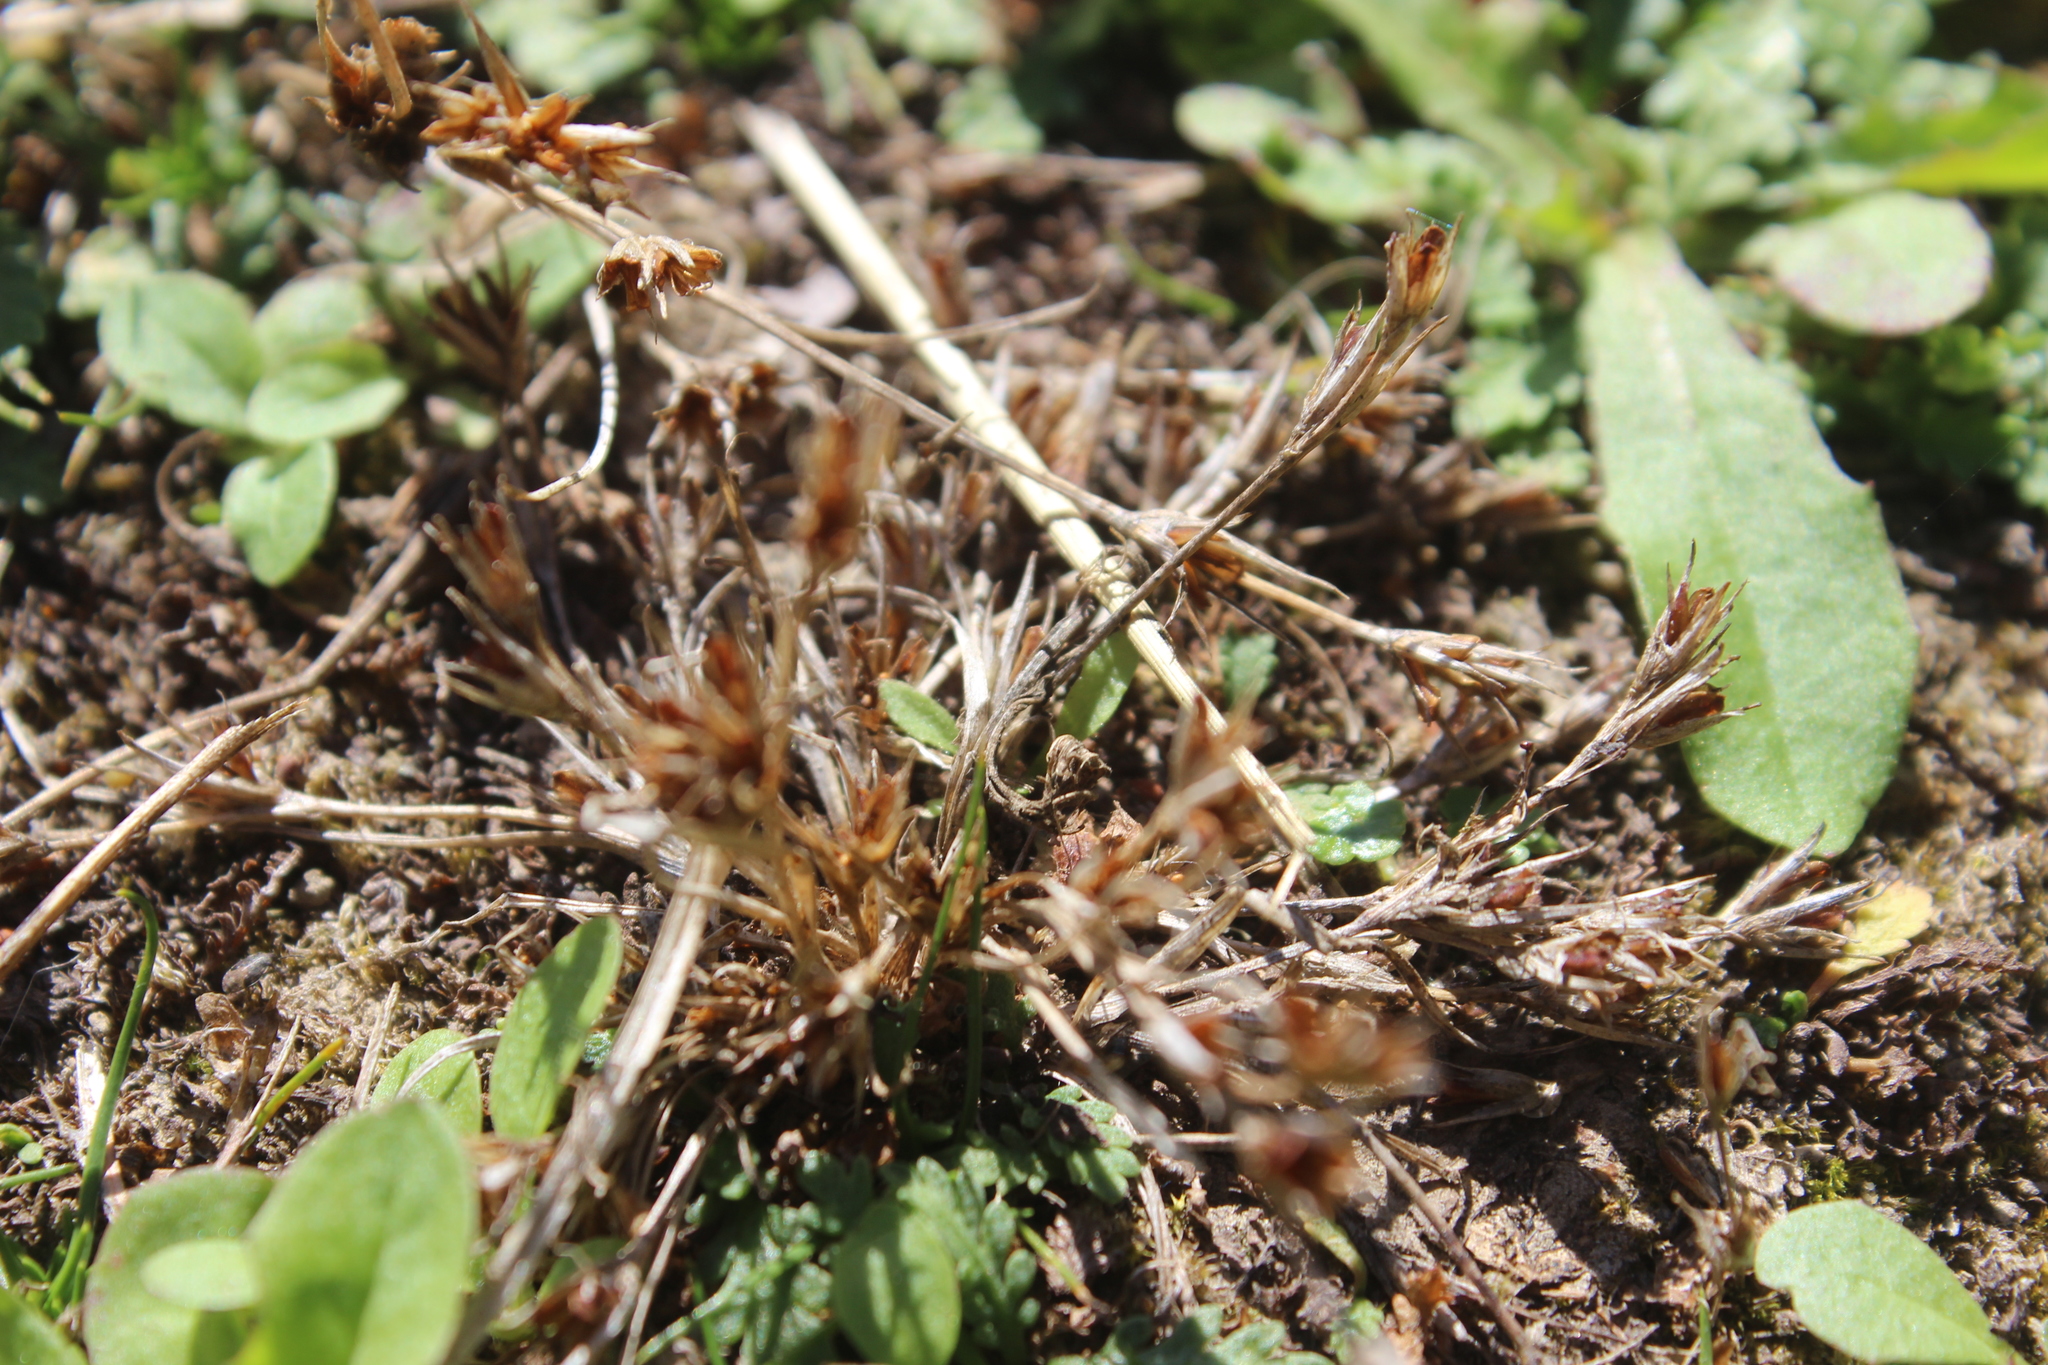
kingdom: Plantae
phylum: Tracheophyta
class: Liliopsida
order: Poales
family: Juncaceae
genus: Juncus
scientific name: Juncus bufonius
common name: Toad rush
